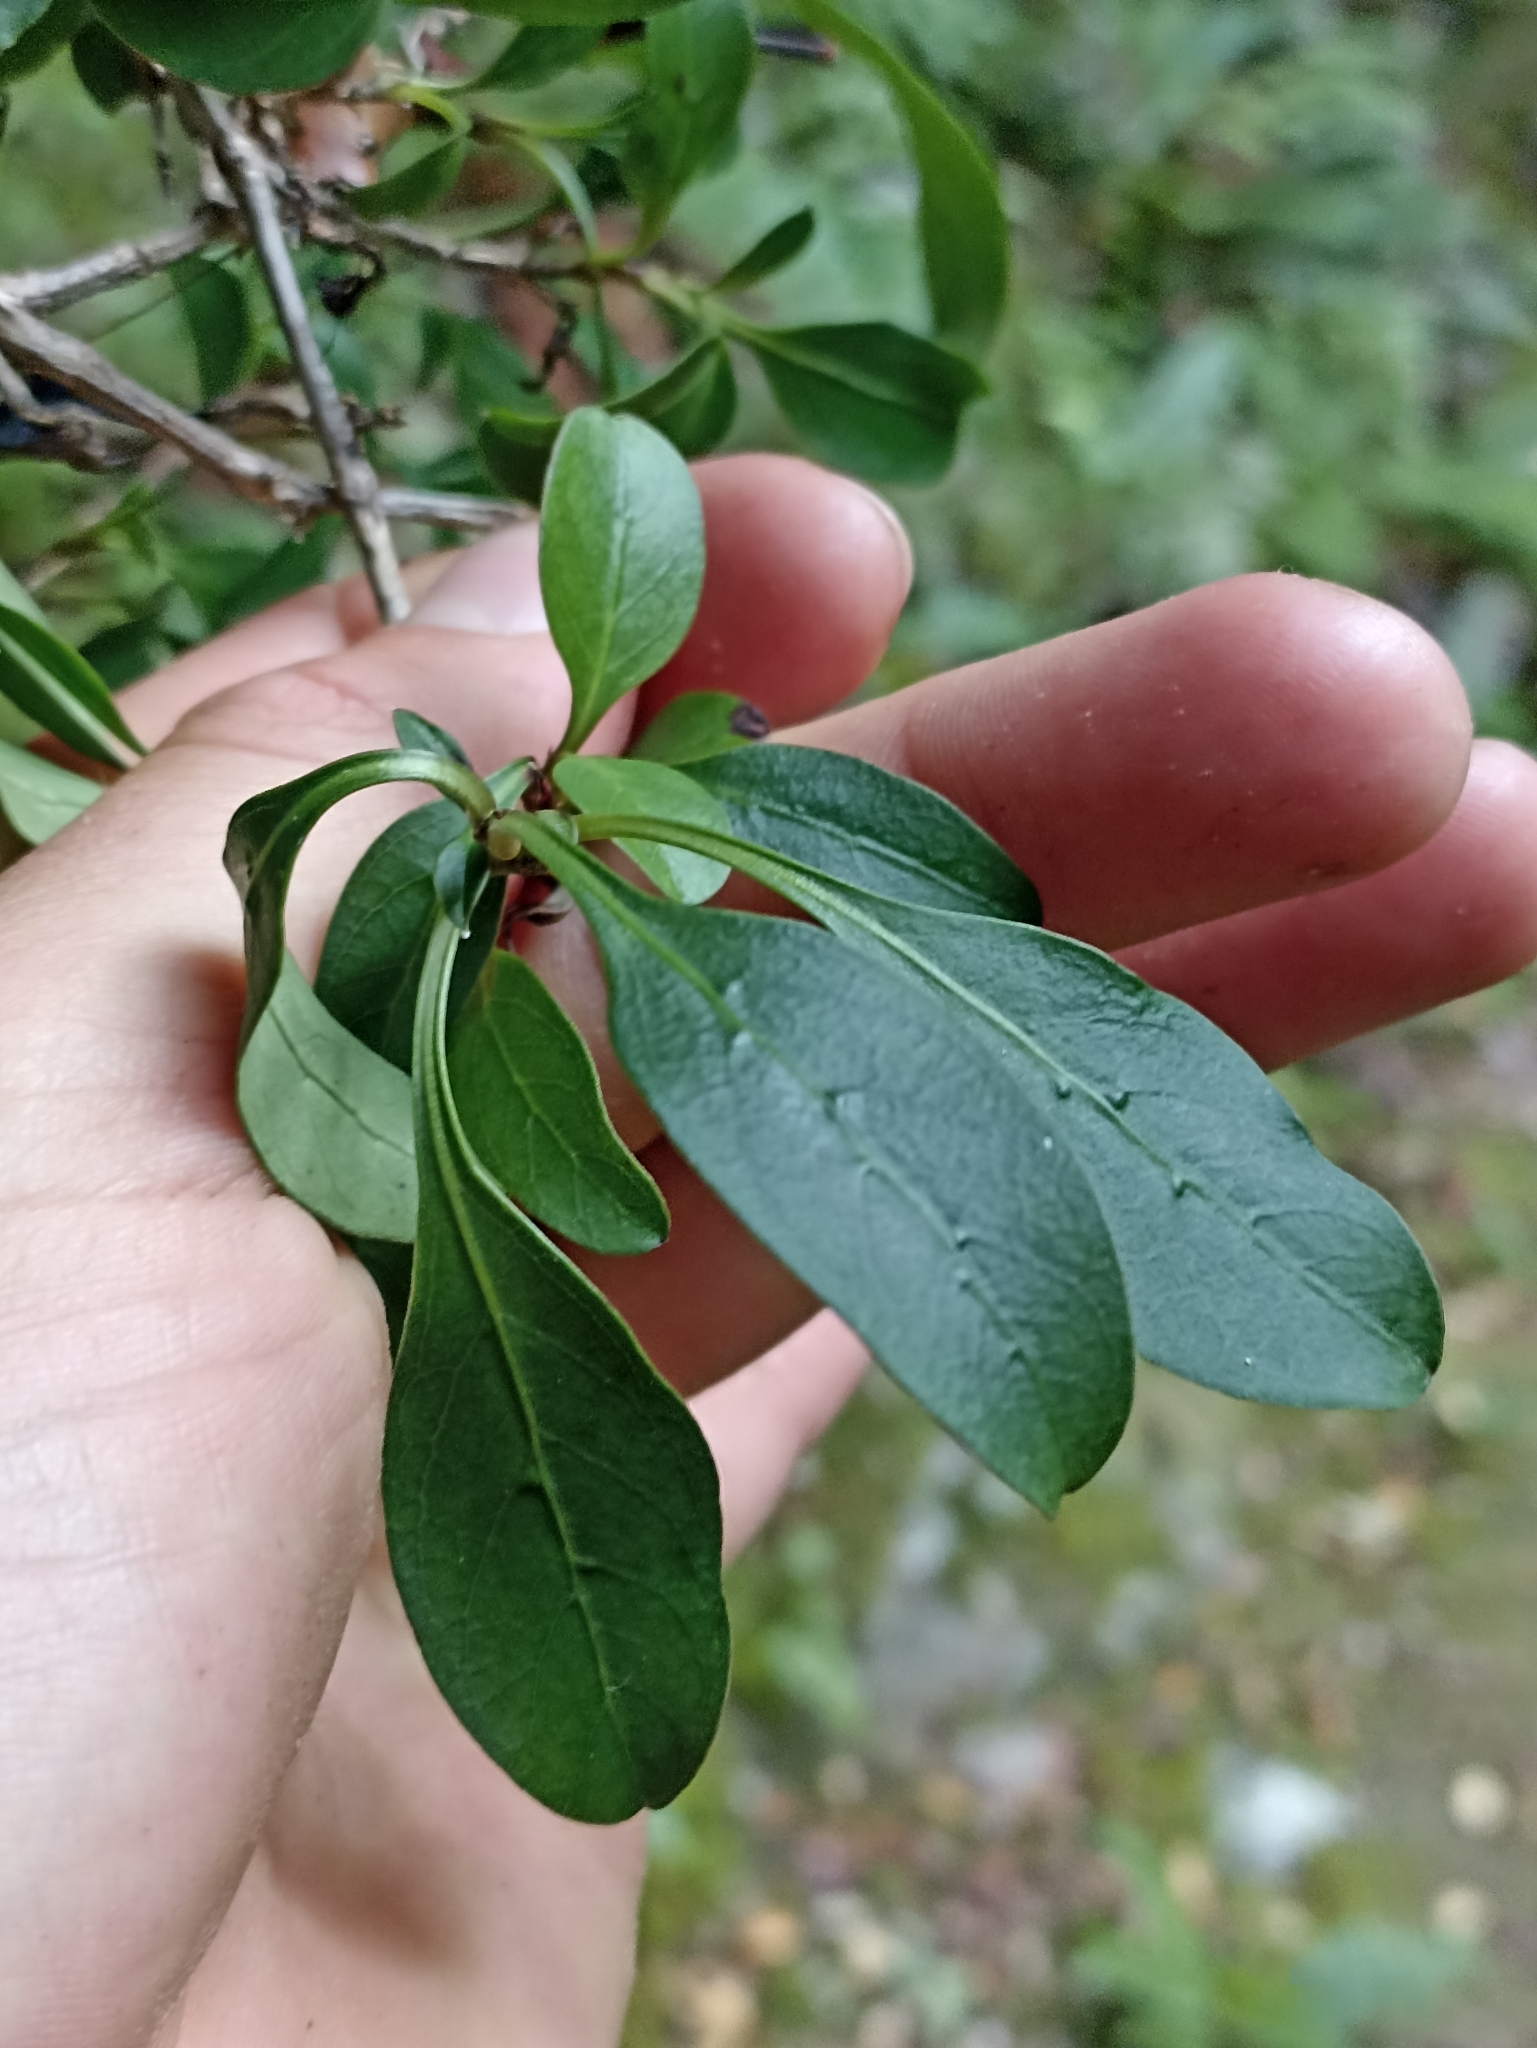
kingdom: Plantae
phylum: Tracheophyta
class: Magnoliopsida
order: Gentianales
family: Rubiaceae
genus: Coprosma
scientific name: Coprosma foetidissima
